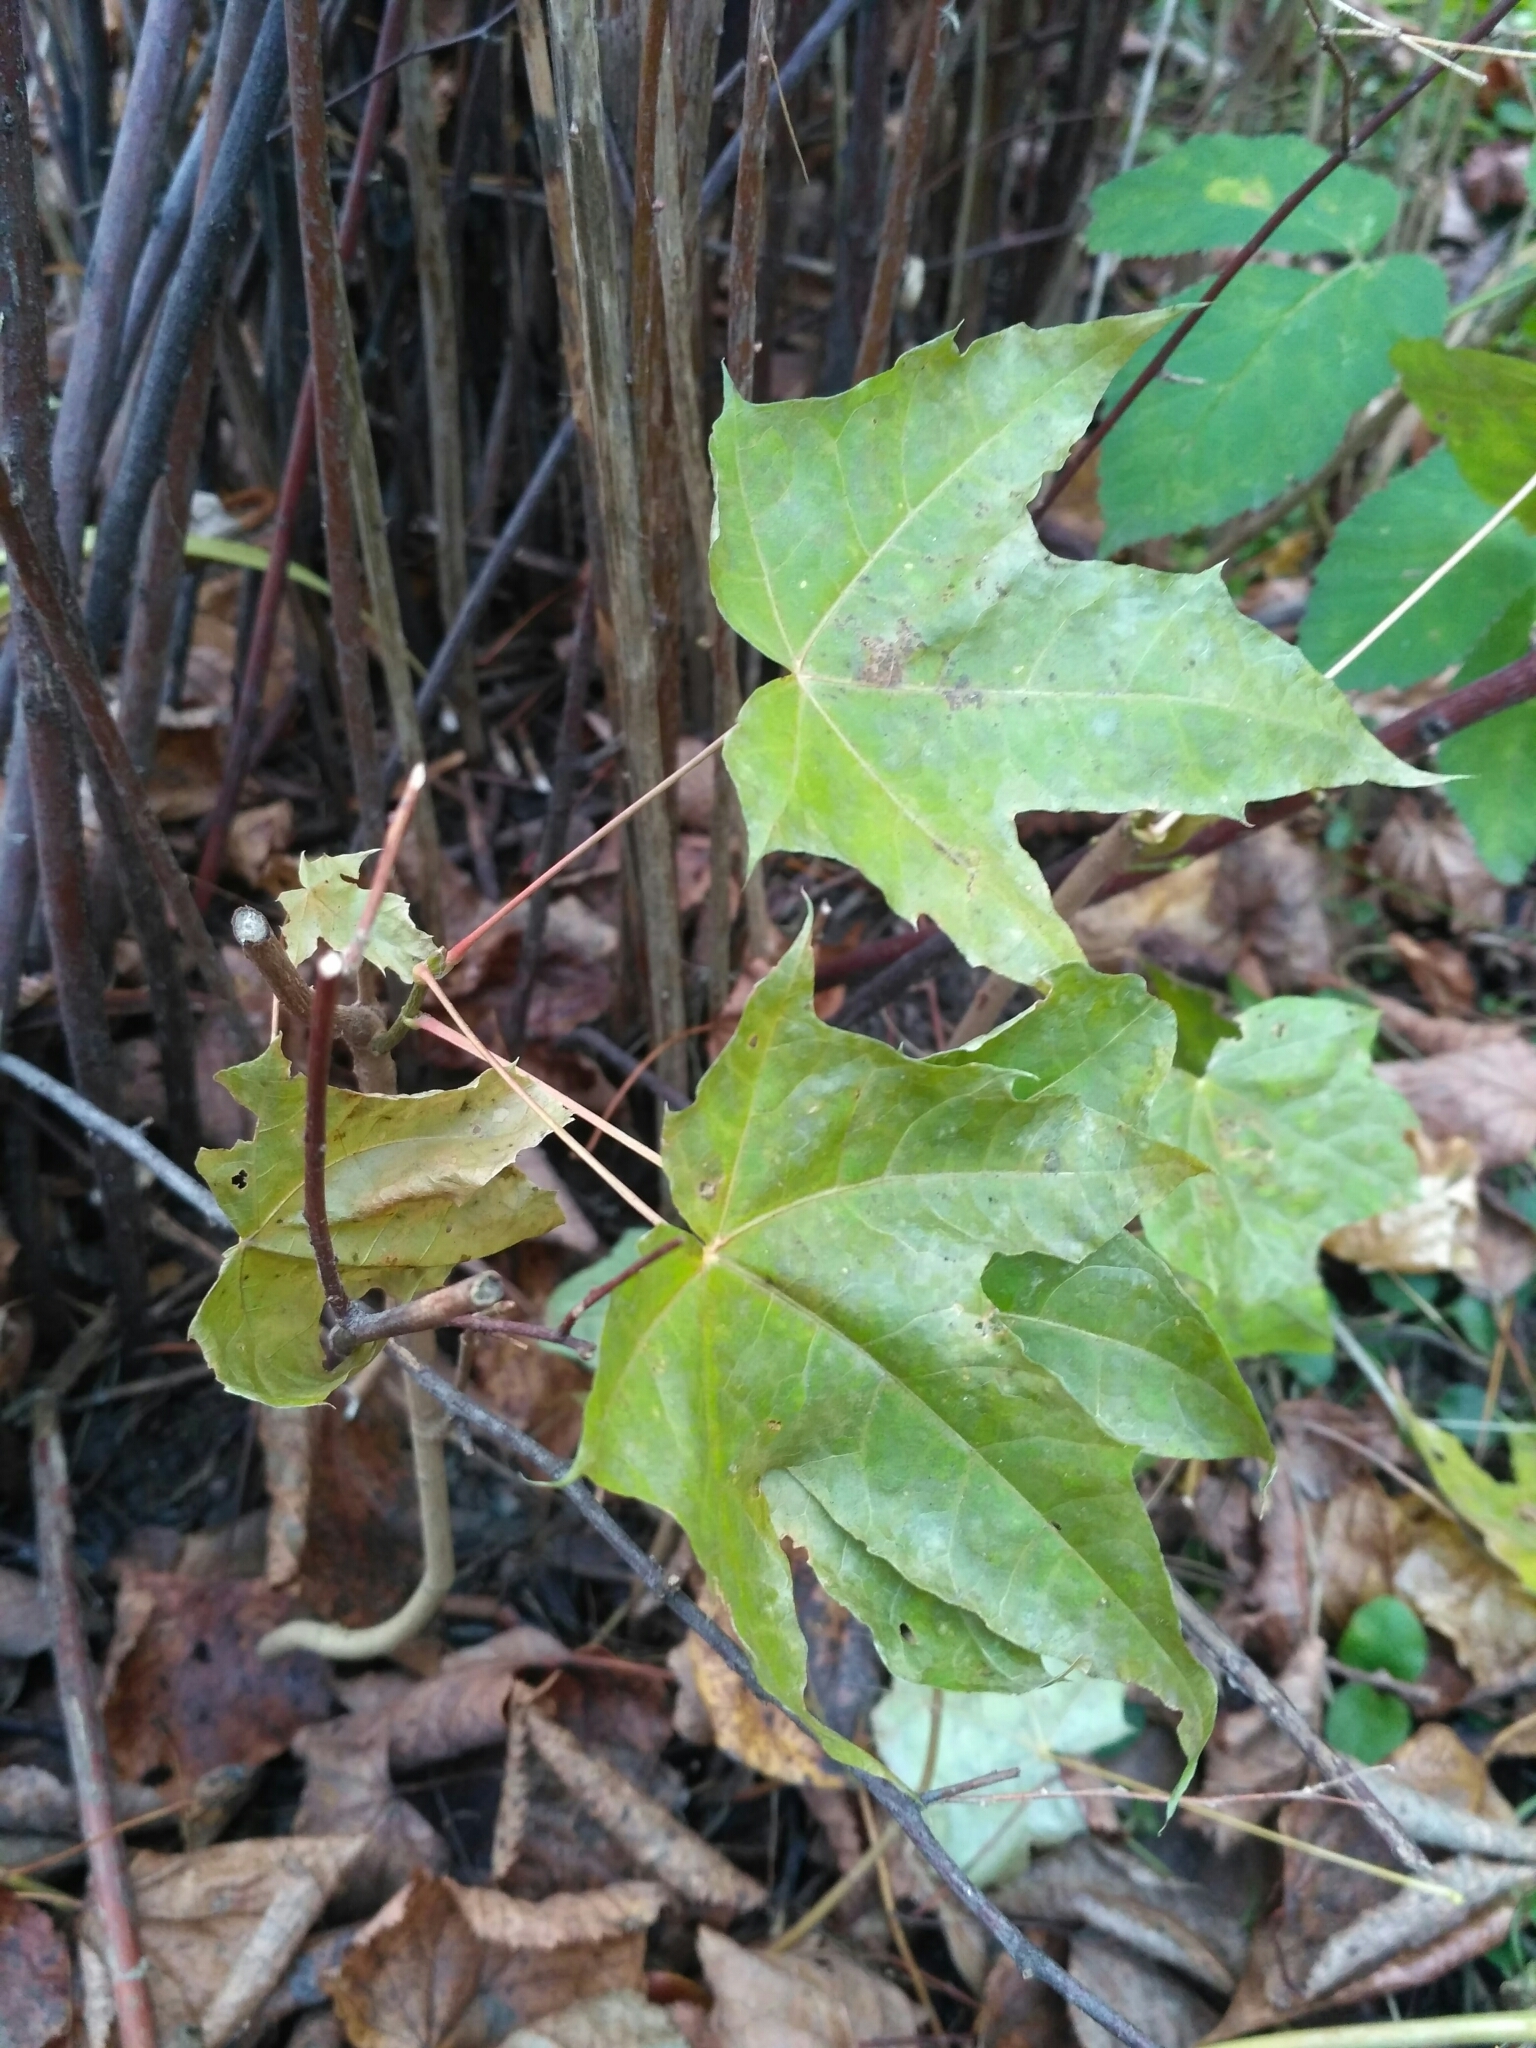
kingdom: Plantae
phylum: Tracheophyta
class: Magnoliopsida
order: Sapindales
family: Sapindaceae
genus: Acer
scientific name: Acer platanoides
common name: Norway maple
